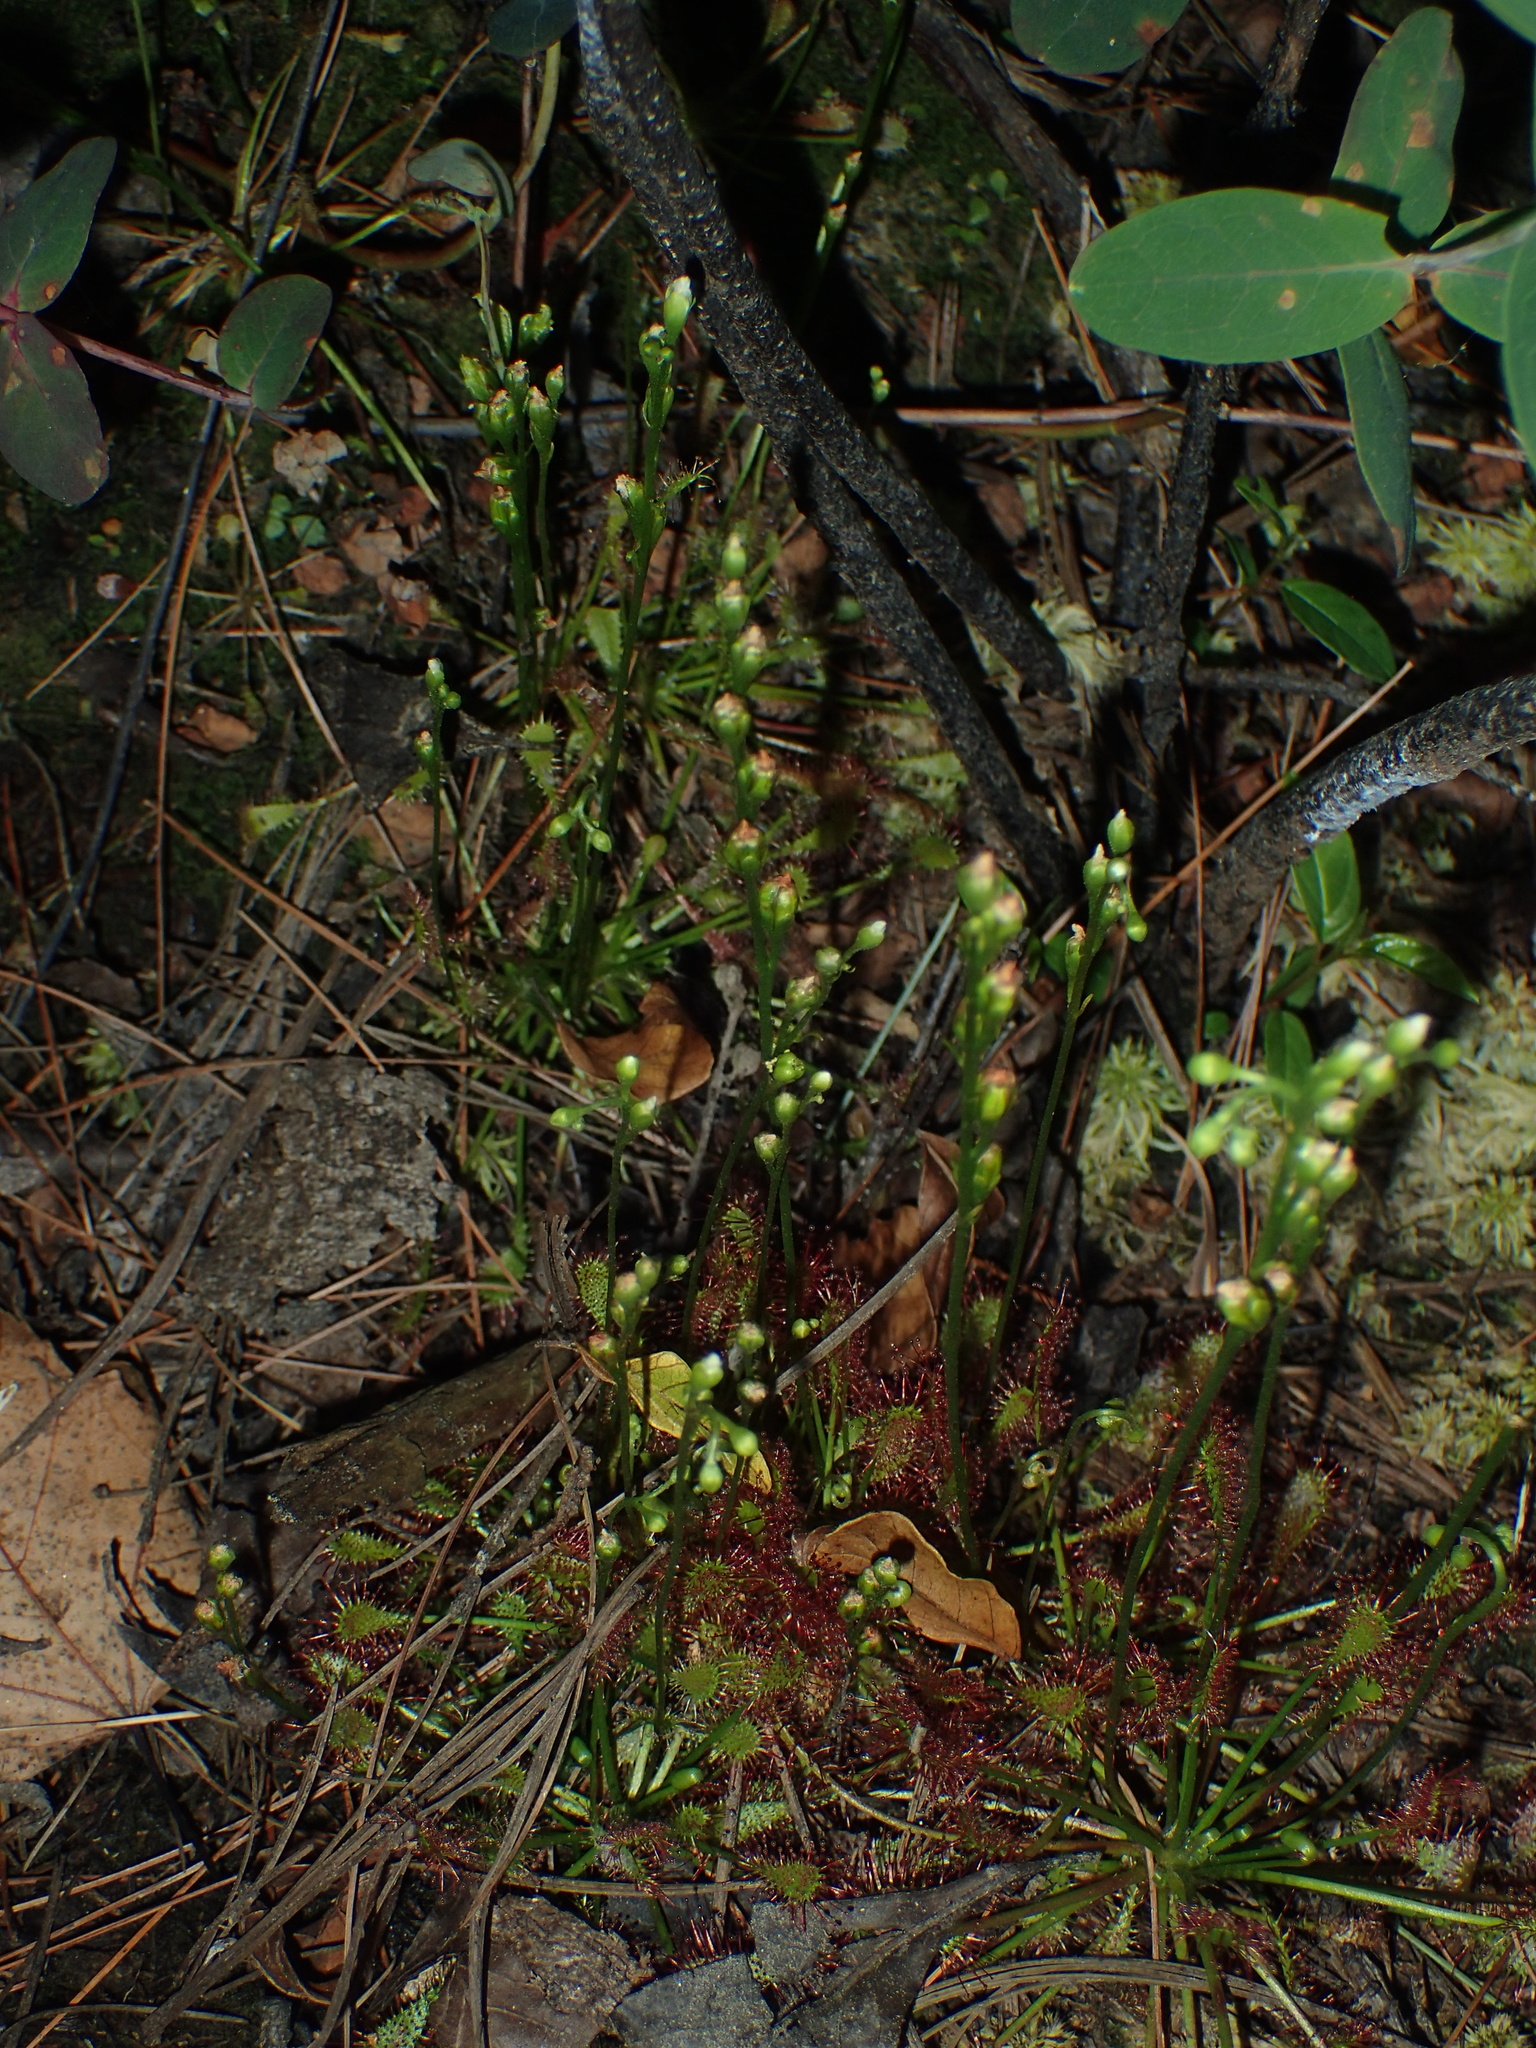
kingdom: Plantae
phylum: Tracheophyta
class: Magnoliopsida
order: Caryophyllales
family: Droseraceae
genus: Drosera
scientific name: Drosera intermedia
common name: Oblong-leaved sundew
